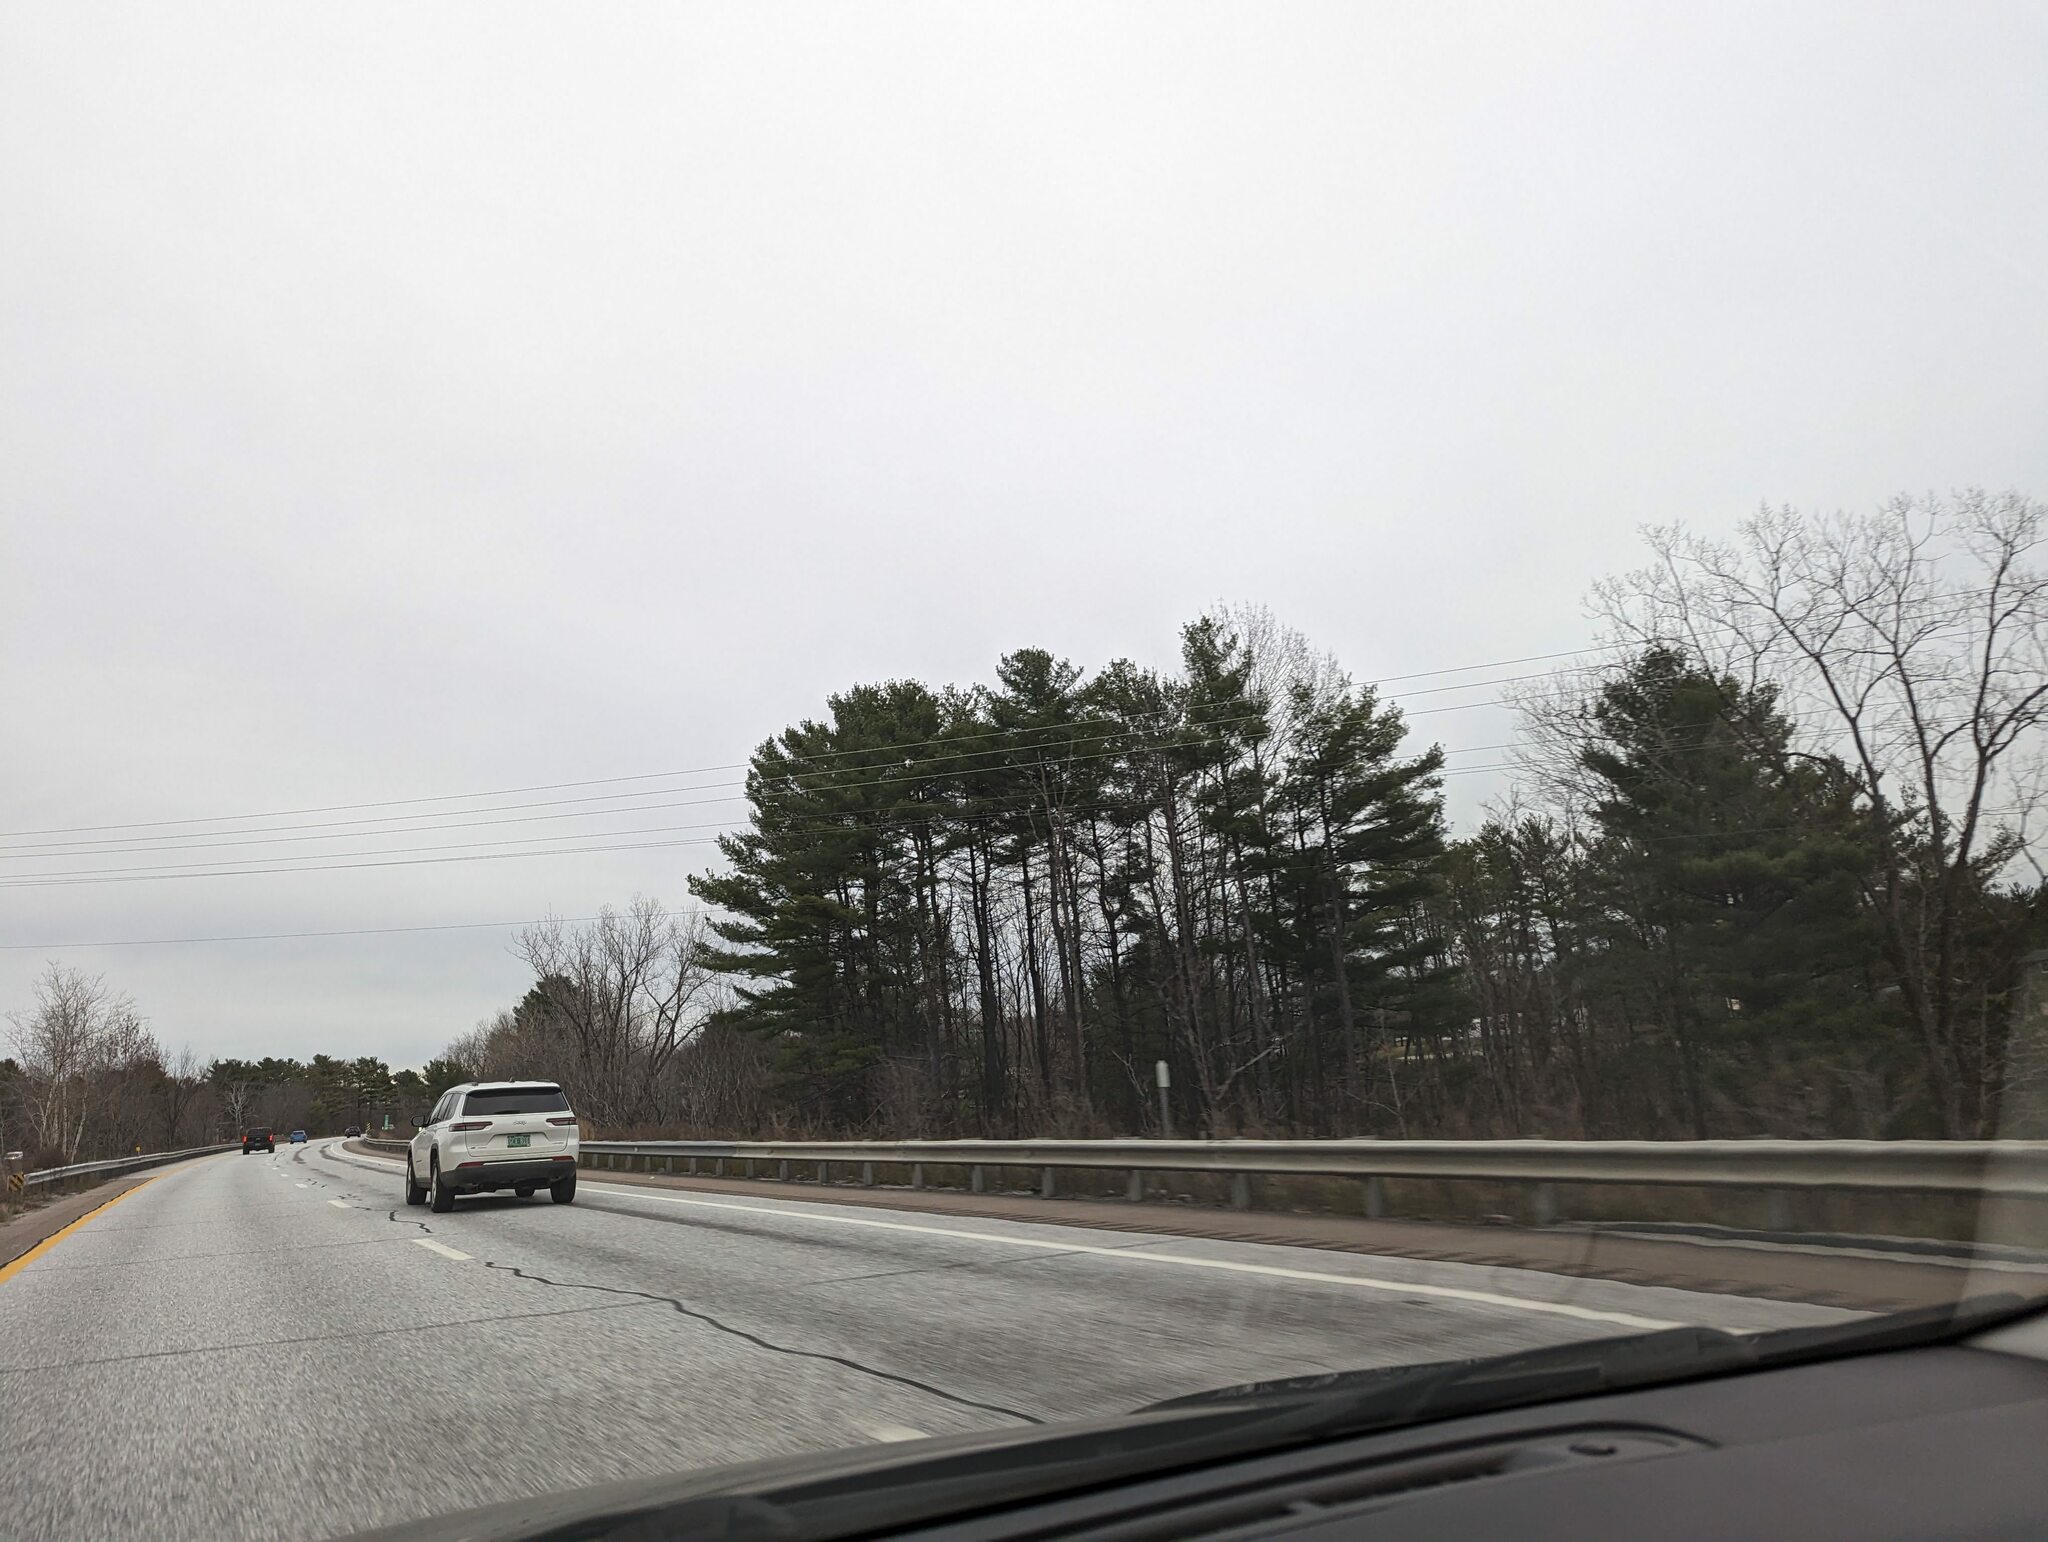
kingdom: Plantae
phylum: Tracheophyta
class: Pinopsida
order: Pinales
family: Pinaceae
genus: Pinus
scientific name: Pinus strobus
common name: Weymouth pine
